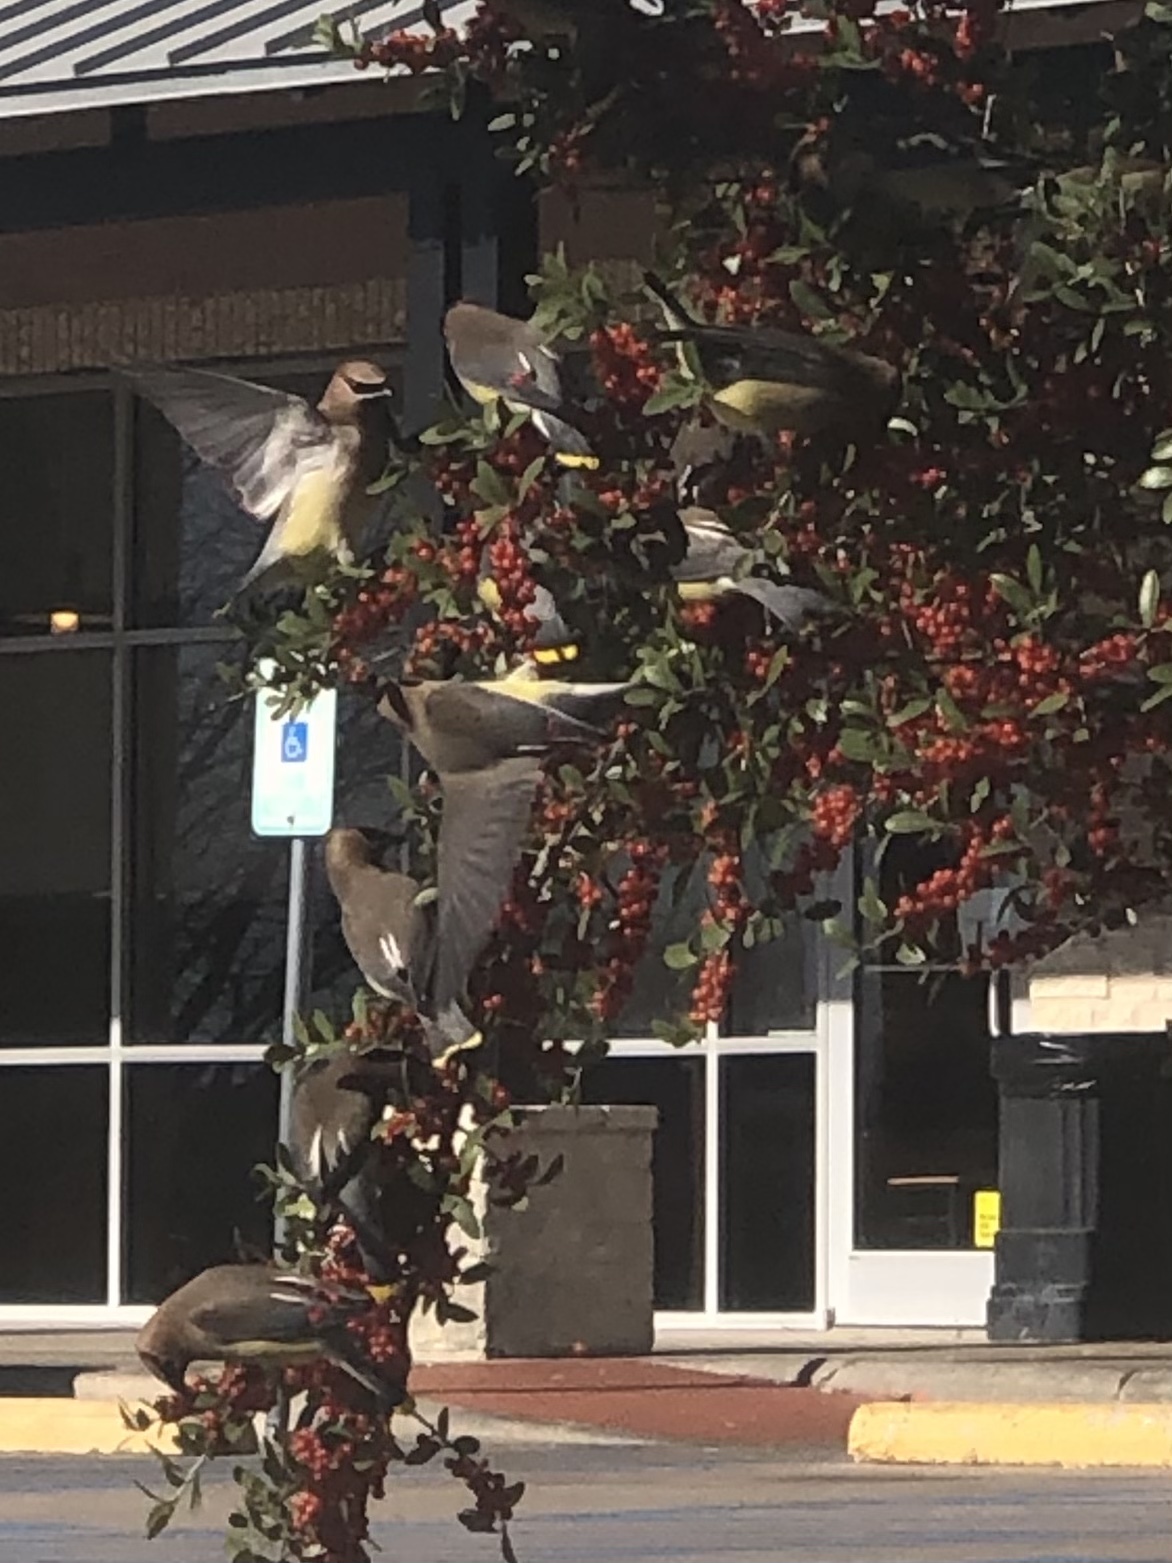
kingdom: Animalia
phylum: Chordata
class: Aves
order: Passeriformes
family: Bombycillidae
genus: Bombycilla
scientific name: Bombycilla cedrorum
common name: Cedar waxwing
